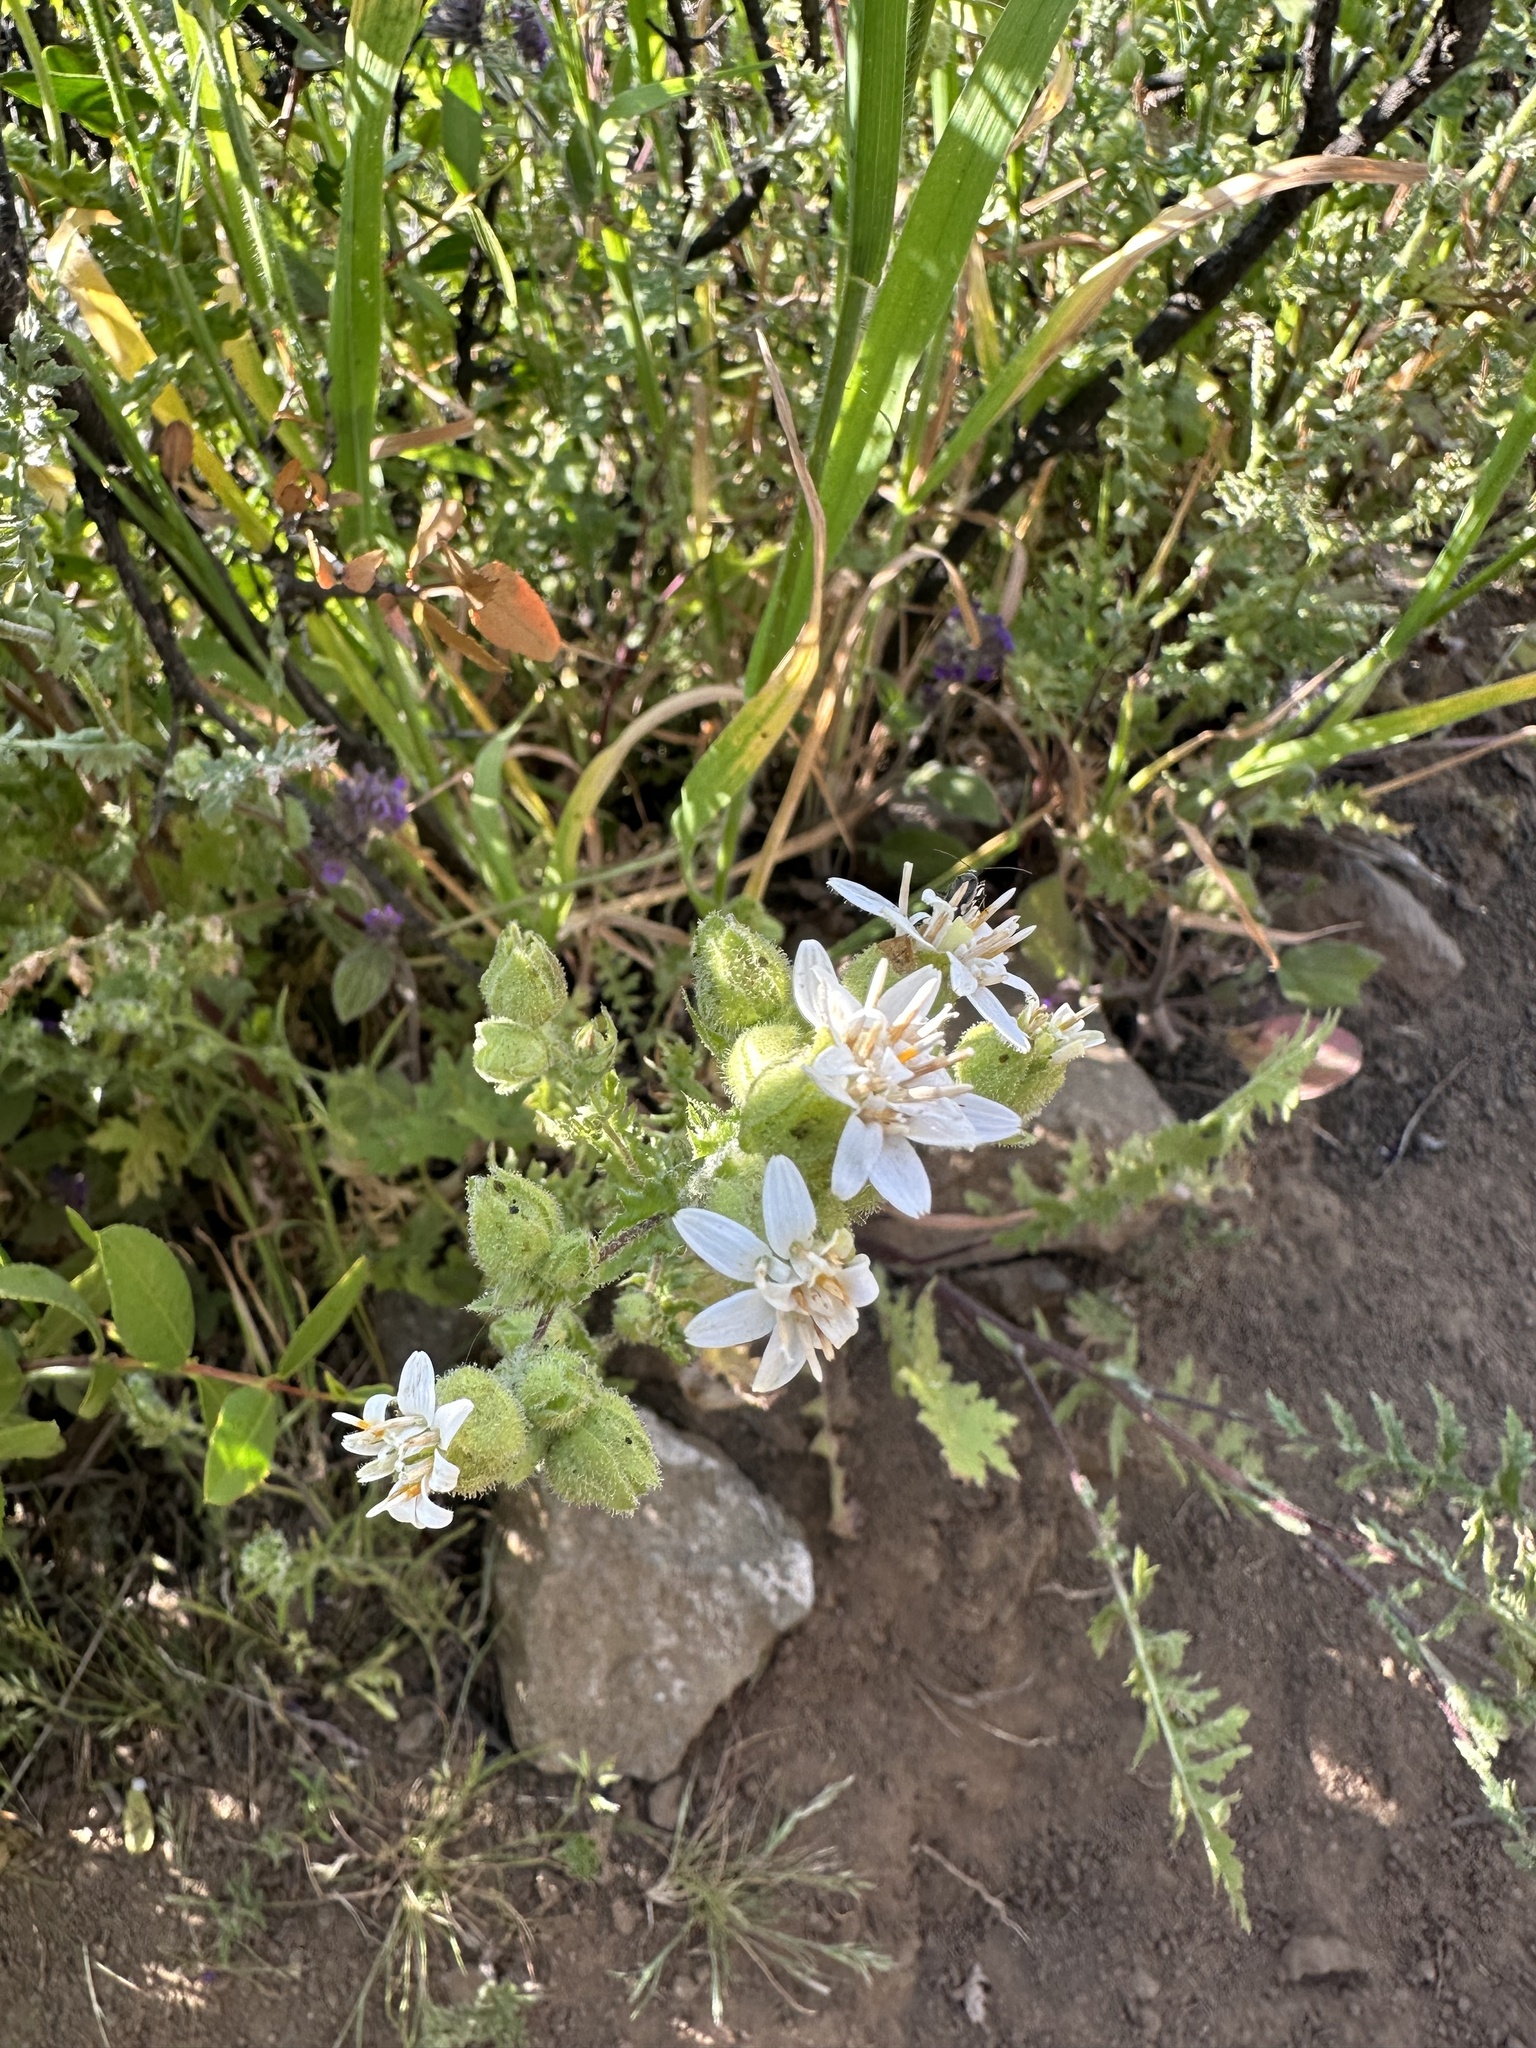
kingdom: Plantae
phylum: Tracheophyta
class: Magnoliopsida
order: Asterales
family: Asteraceae
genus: Moscharia
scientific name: Moscharia pinnatifida
